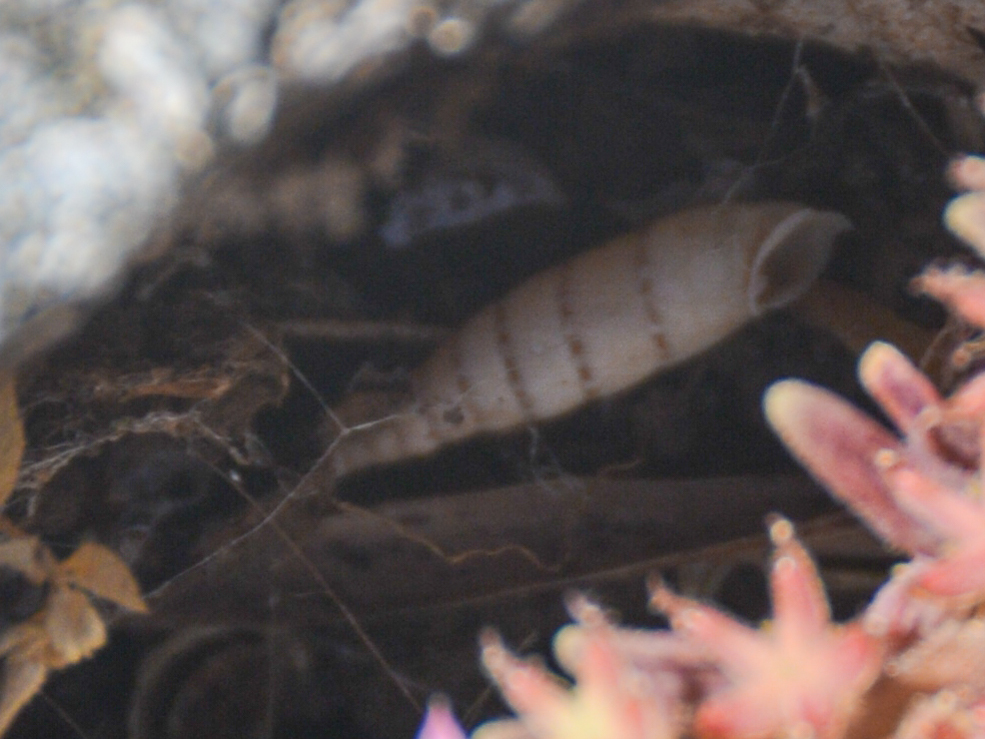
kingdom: Animalia
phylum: Mollusca
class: Gastropoda
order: Stylommatophora
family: Clausiliidae
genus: Papillifera
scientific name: Papillifera papillaris
